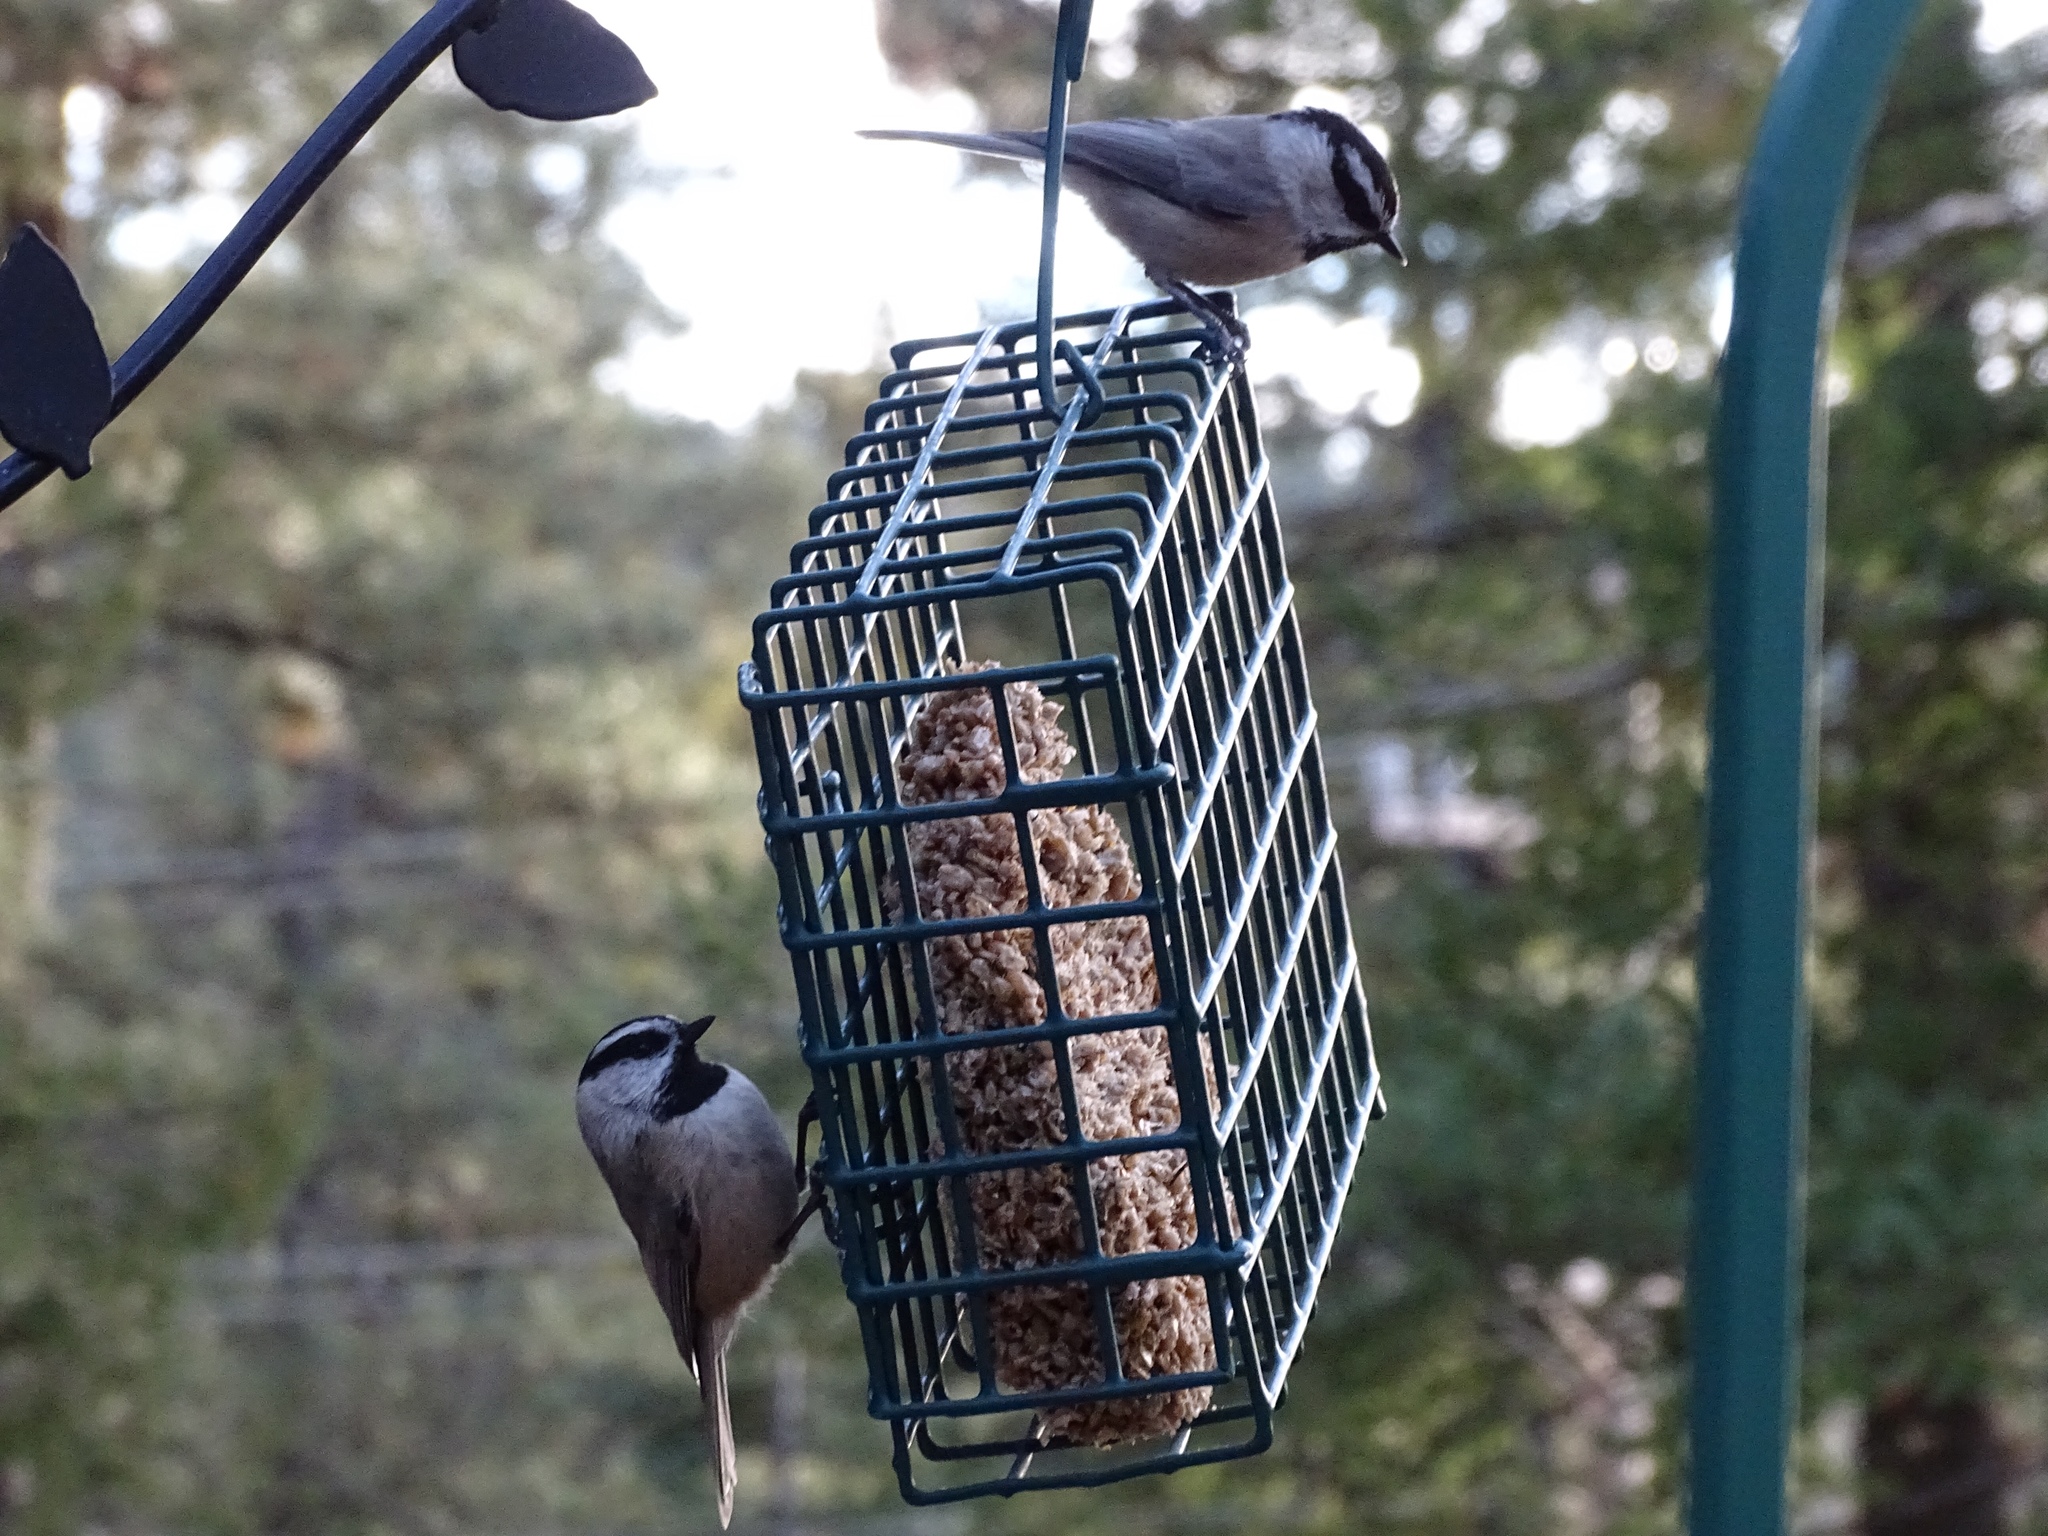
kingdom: Animalia
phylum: Chordata
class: Aves
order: Passeriformes
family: Paridae
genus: Poecile
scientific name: Poecile gambeli
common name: Mountain chickadee
